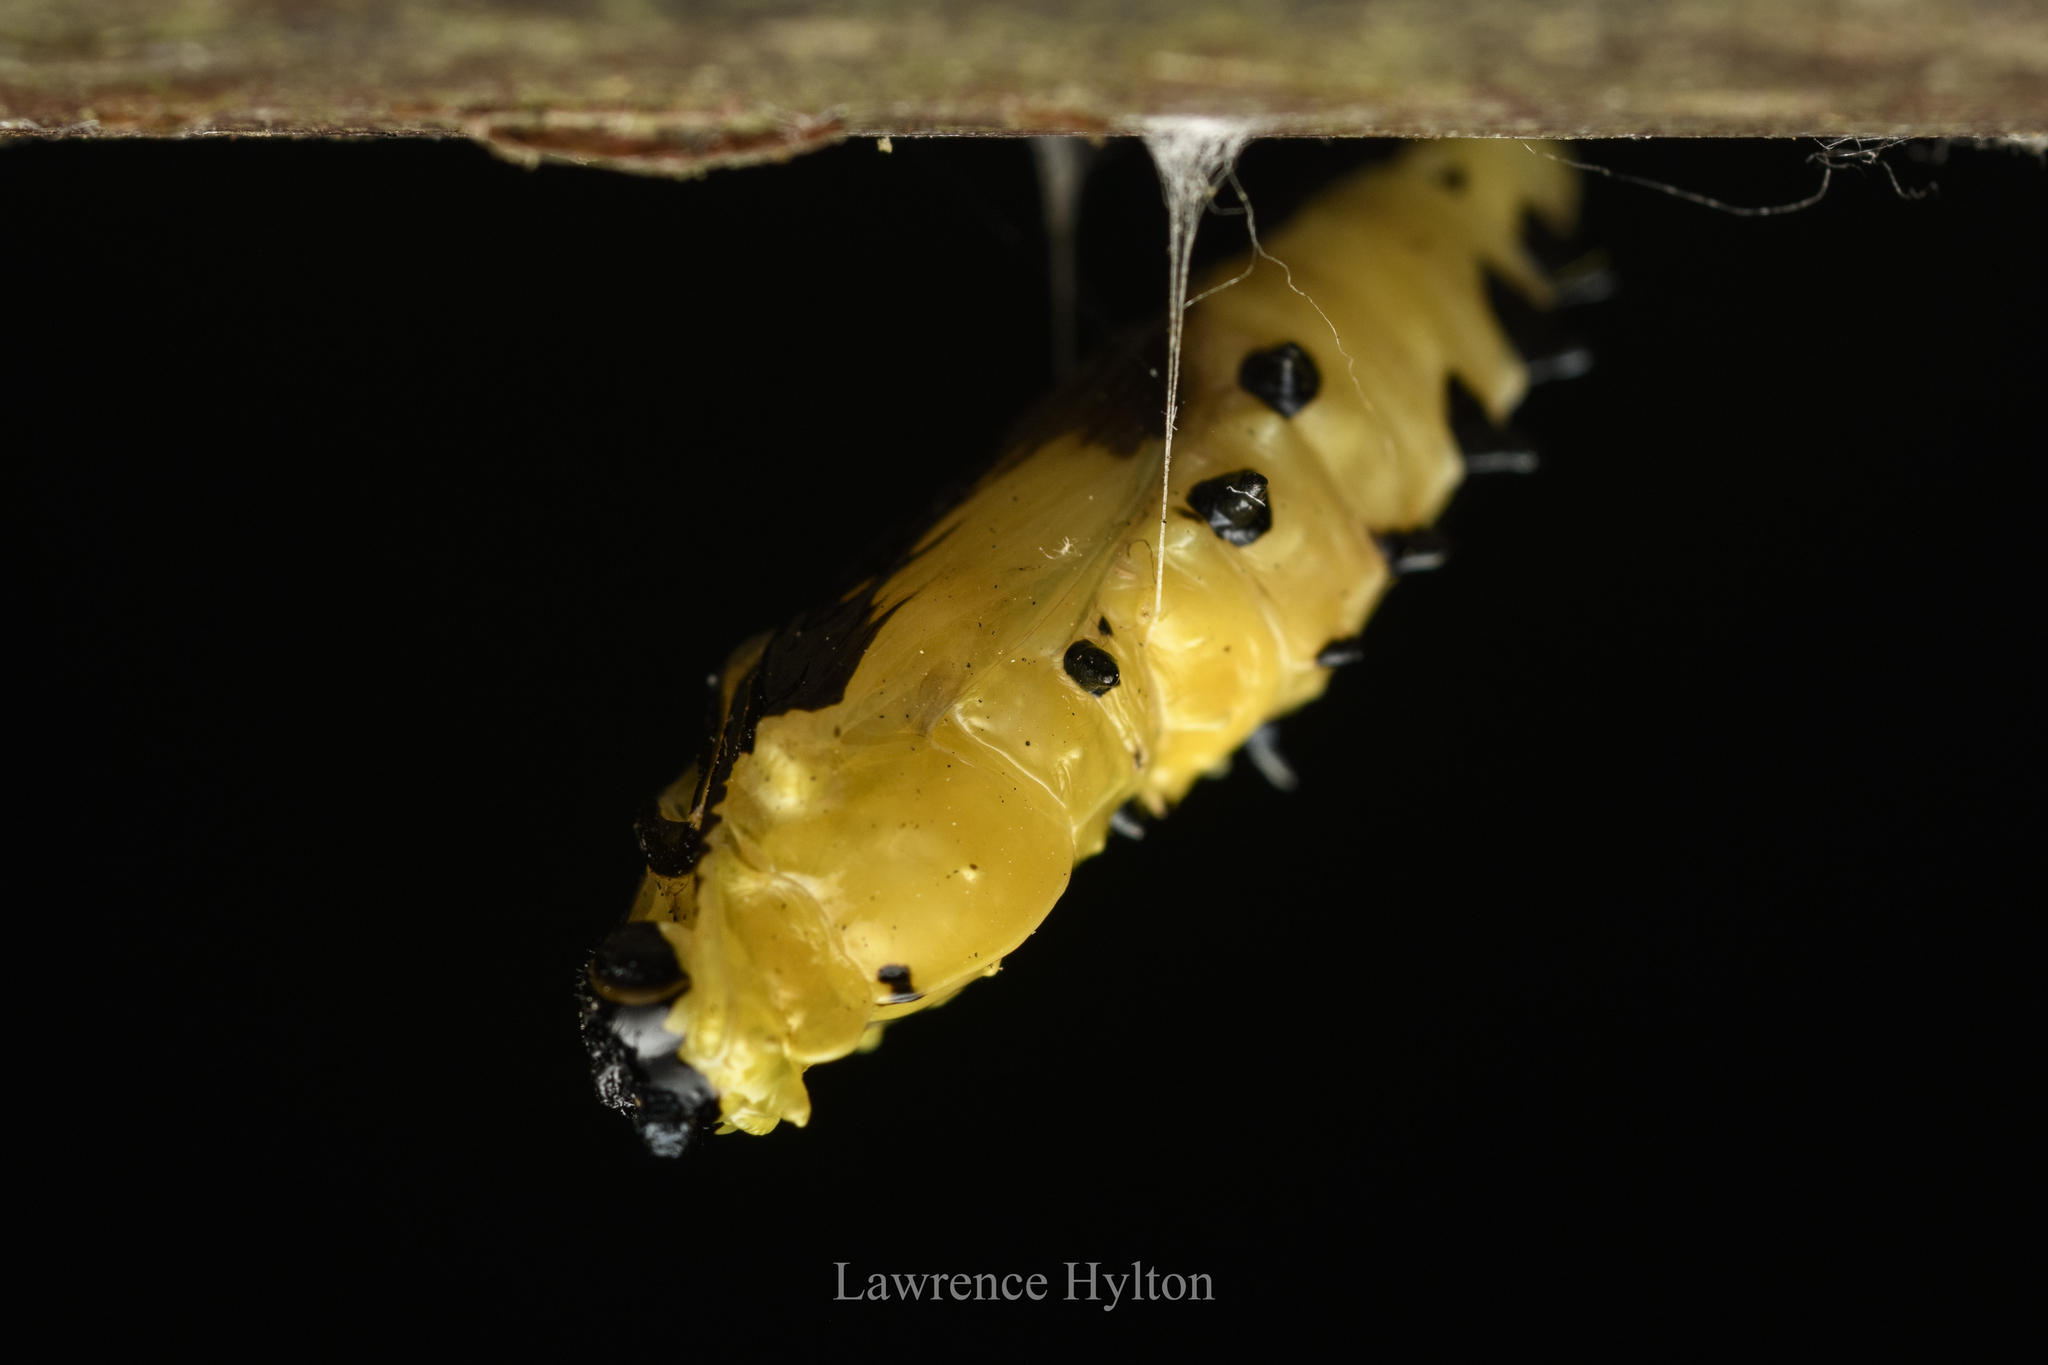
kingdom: Animalia
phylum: Arthropoda
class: Insecta
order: Lepidoptera
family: Pieridae
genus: Delias
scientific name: Delias hyparete
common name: Painted jezebel
